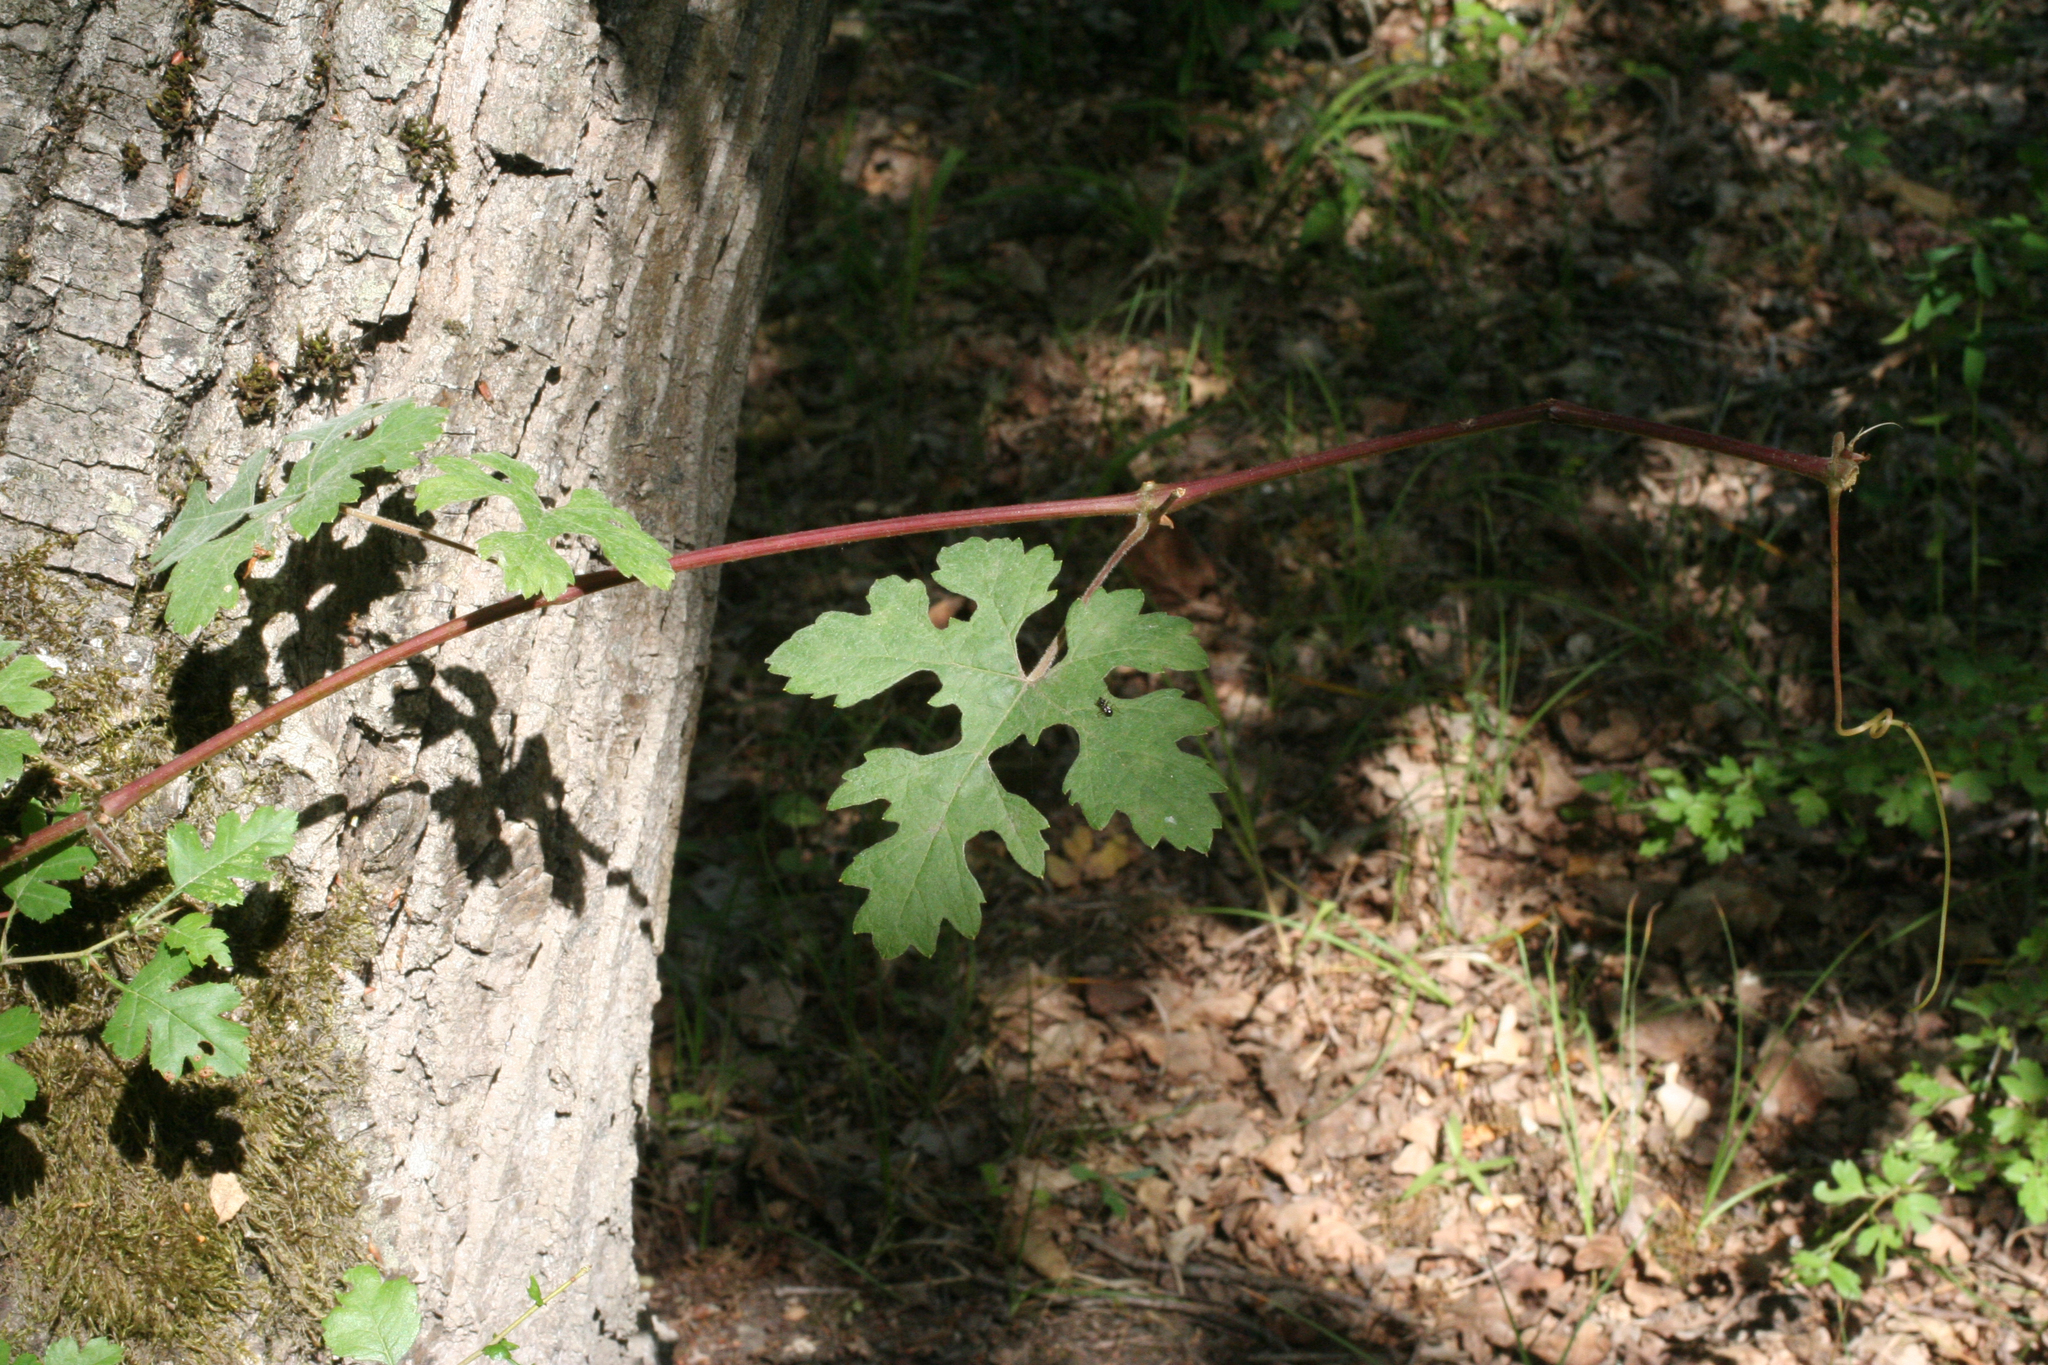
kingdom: Plantae
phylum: Tracheophyta
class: Magnoliopsida
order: Vitales
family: Vitaceae
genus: Vitis
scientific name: Vitis gmelinii
